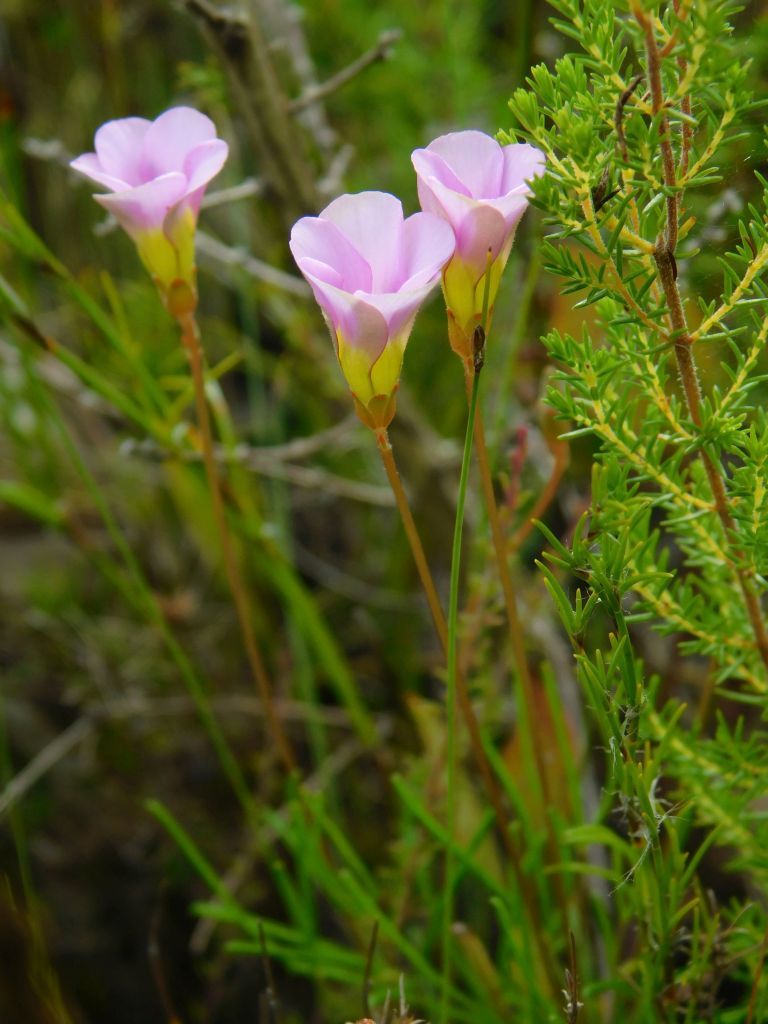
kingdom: Plantae
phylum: Tracheophyta
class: Magnoliopsida
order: Oxalidales
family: Oxalidaceae
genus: Oxalis
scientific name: Oxalis polyphylla
